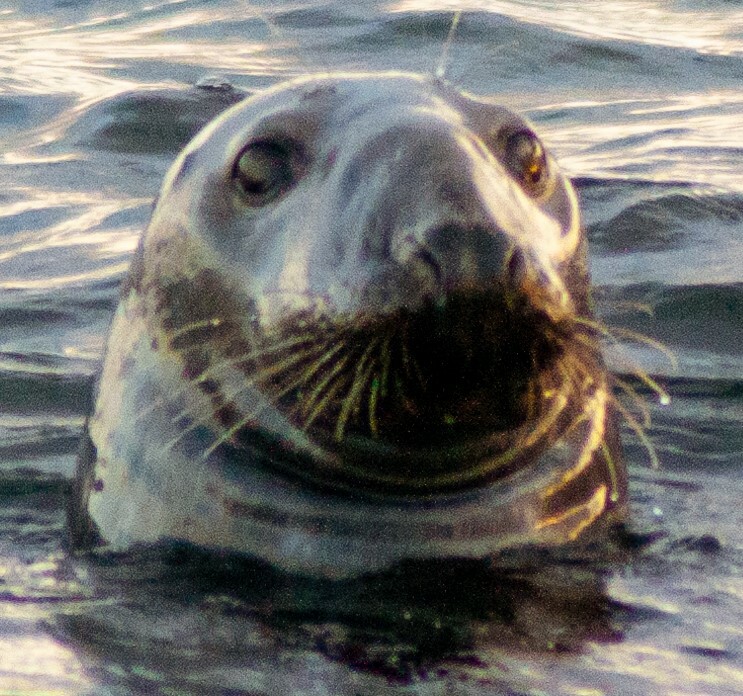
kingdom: Animalia
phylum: Chordata
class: Mammalia
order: Carnivora
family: Phocidae
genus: Halichoerus
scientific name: Halichoerus grypus
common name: Grey seal
